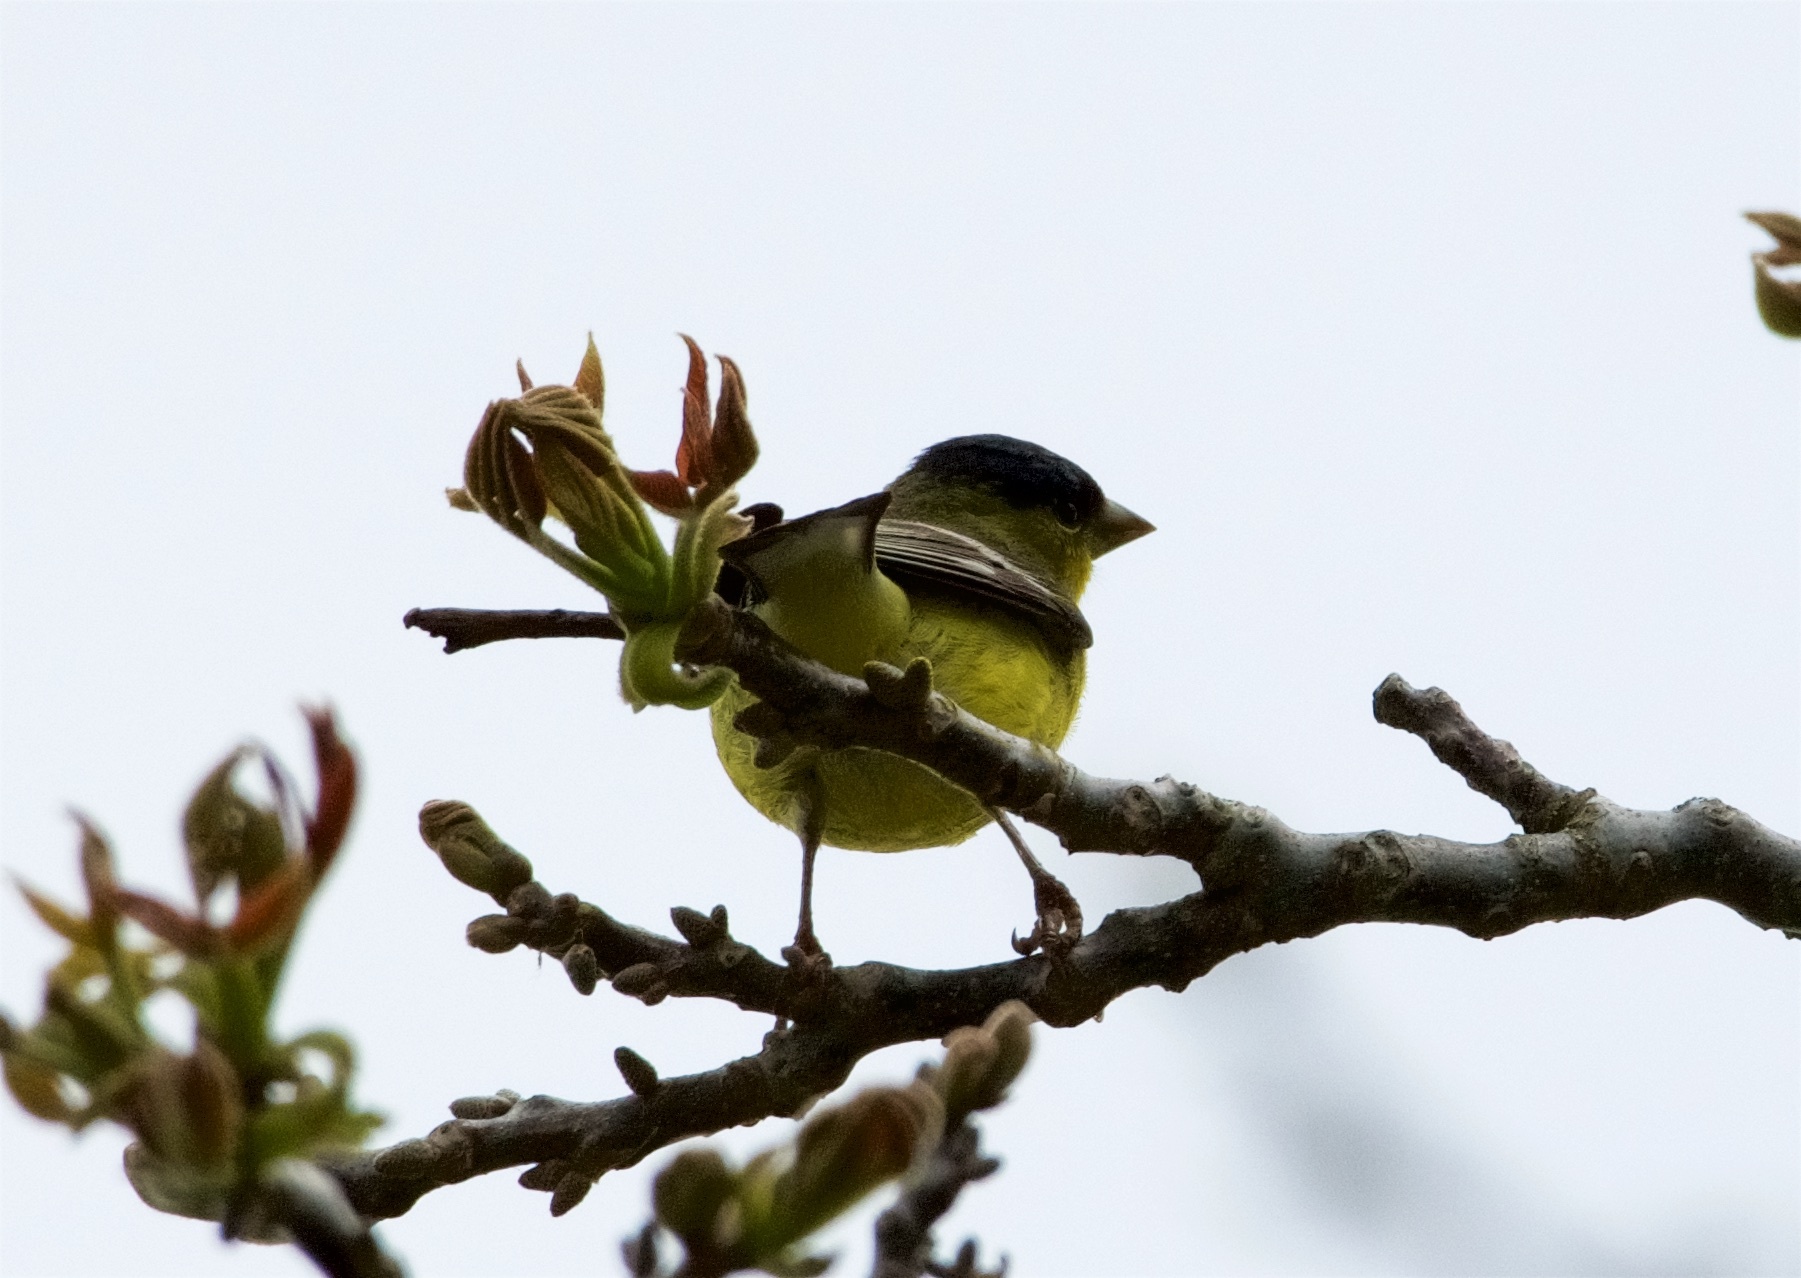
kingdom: Animalia
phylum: Chordata
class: Aves
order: Passeriformes
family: Fringillidae
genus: Spinus
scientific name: Spinus psaltria
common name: Lesser goldfinch
